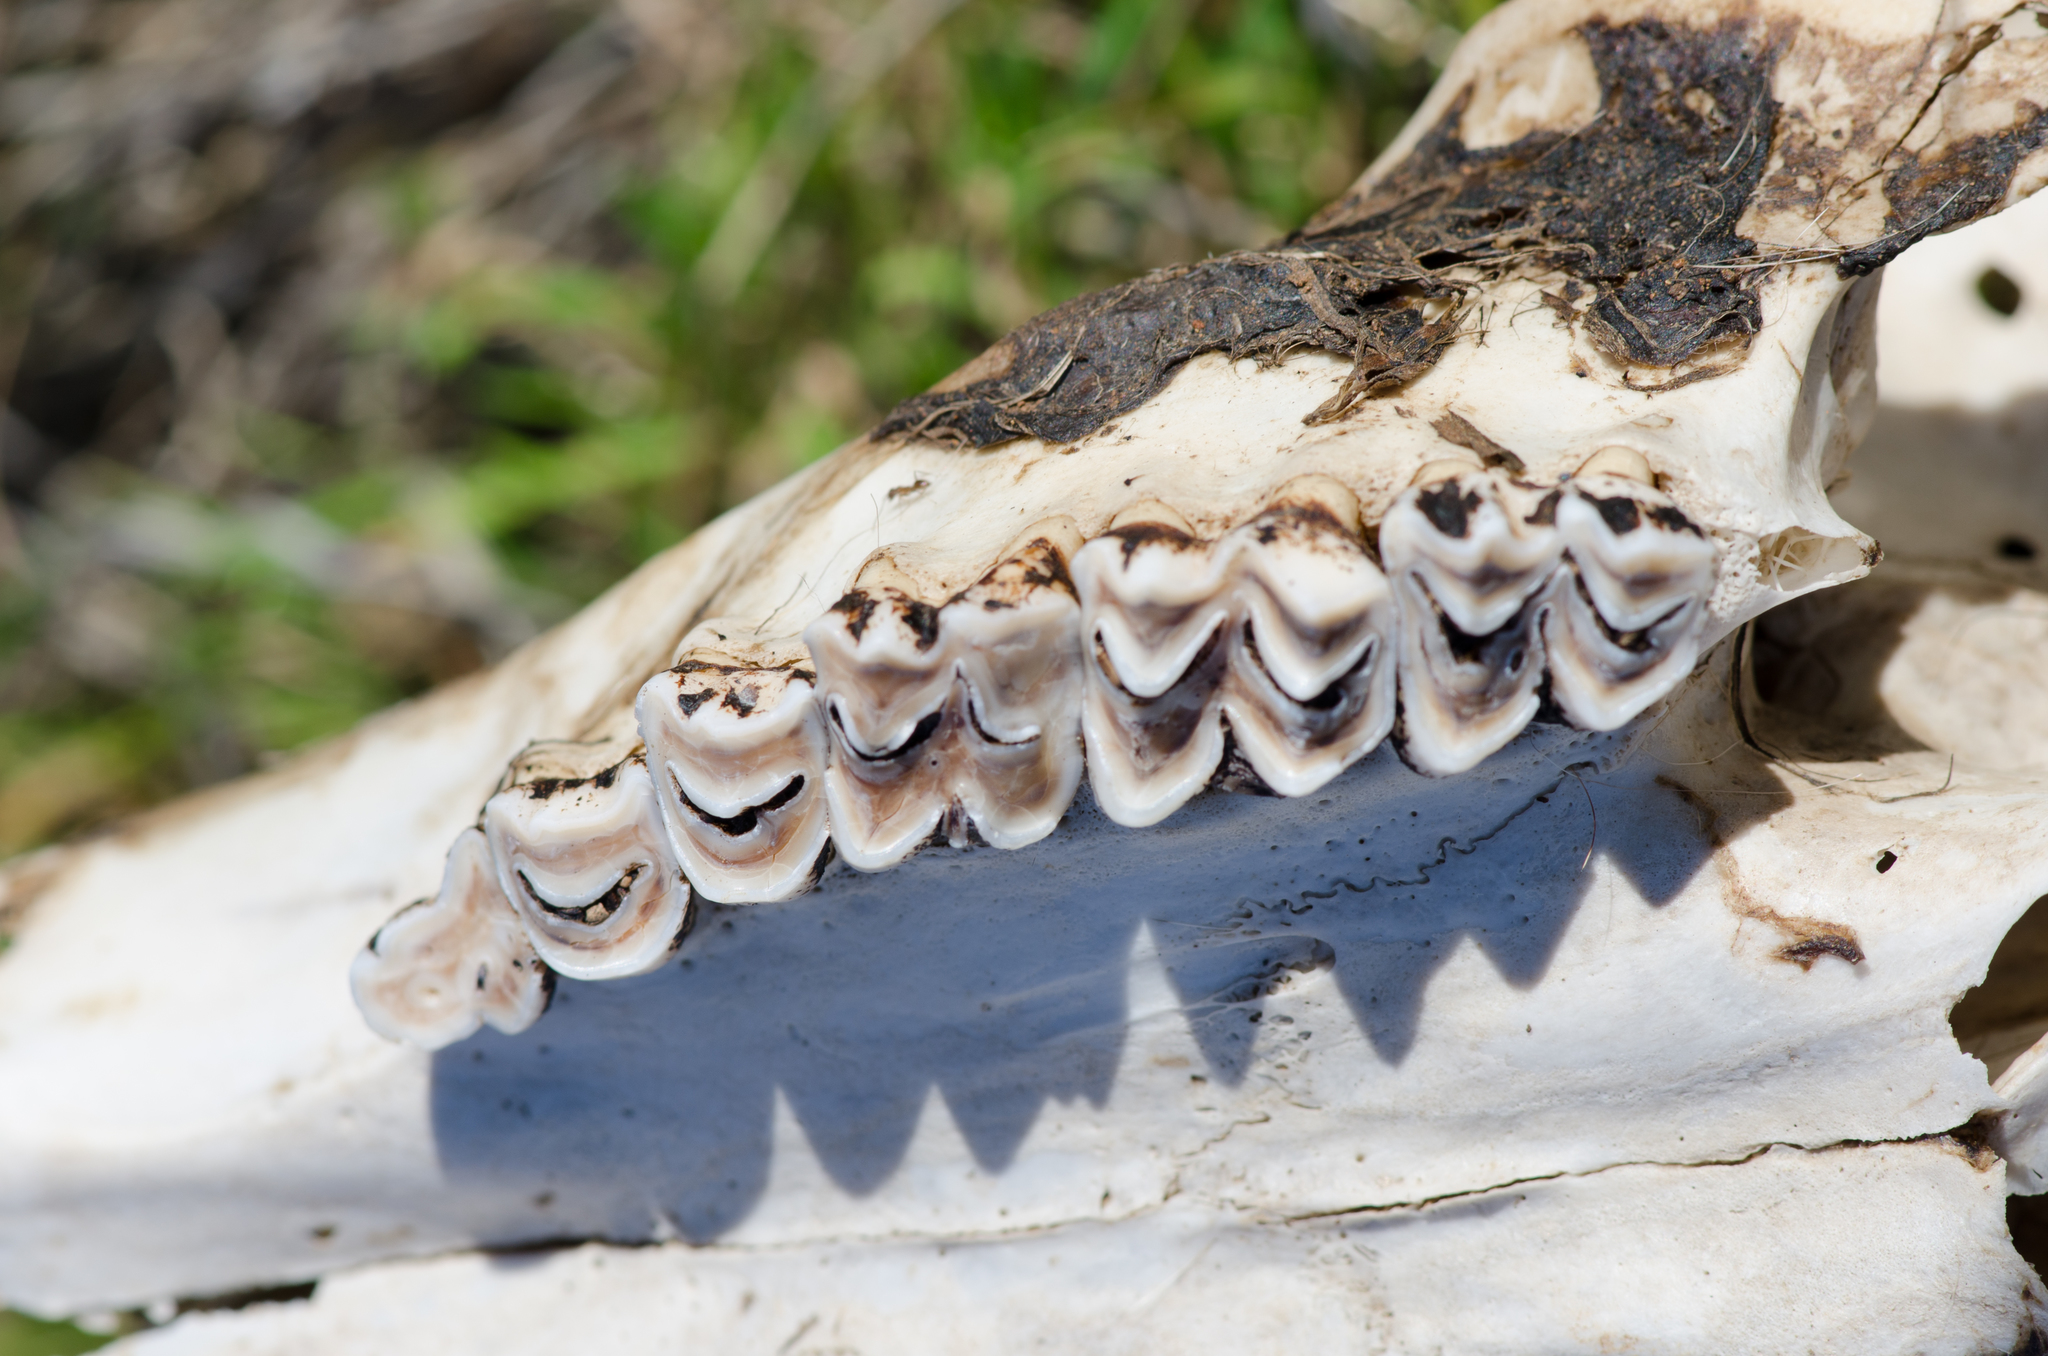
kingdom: Animalia
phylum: Chordata
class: Mammalia
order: Artiodactyla
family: Cervidae
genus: Odocoileus
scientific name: Odocoileus hemionus
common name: Mule deer
